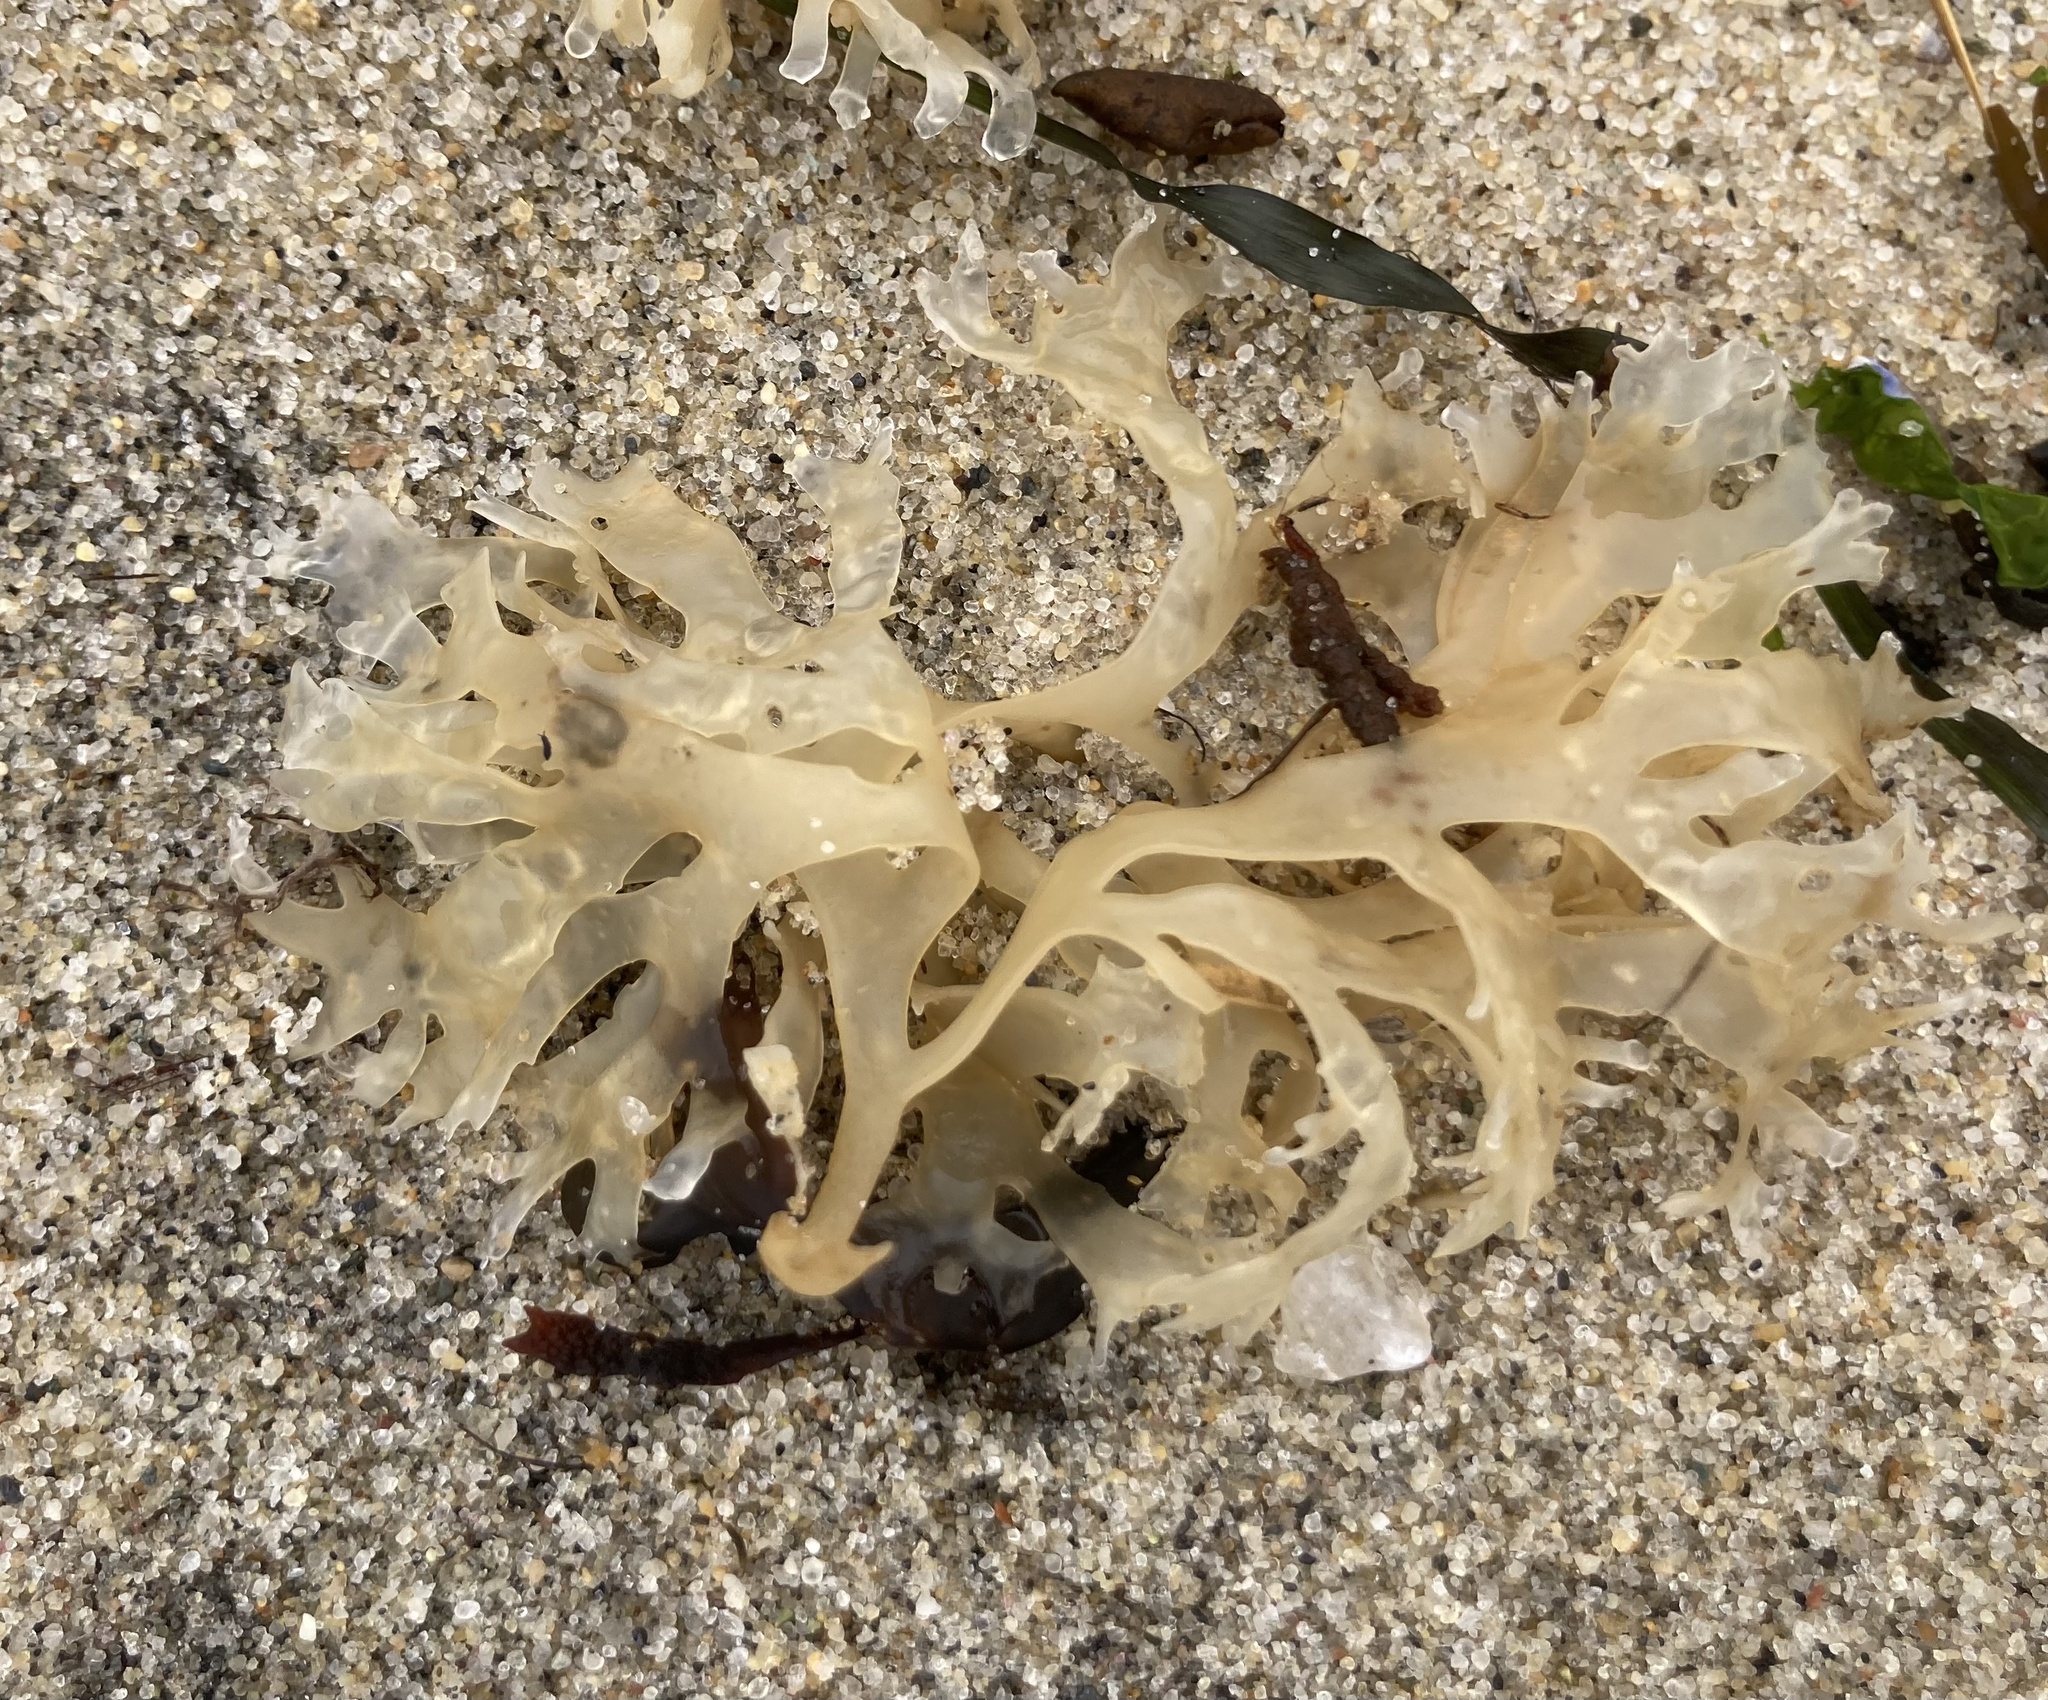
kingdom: Plantae
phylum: Rhodophyta
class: Florideophyceae
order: Gigartinales
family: Gigartinaceae
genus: Chondrus
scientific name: Chondrus crispus
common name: Carrageen
